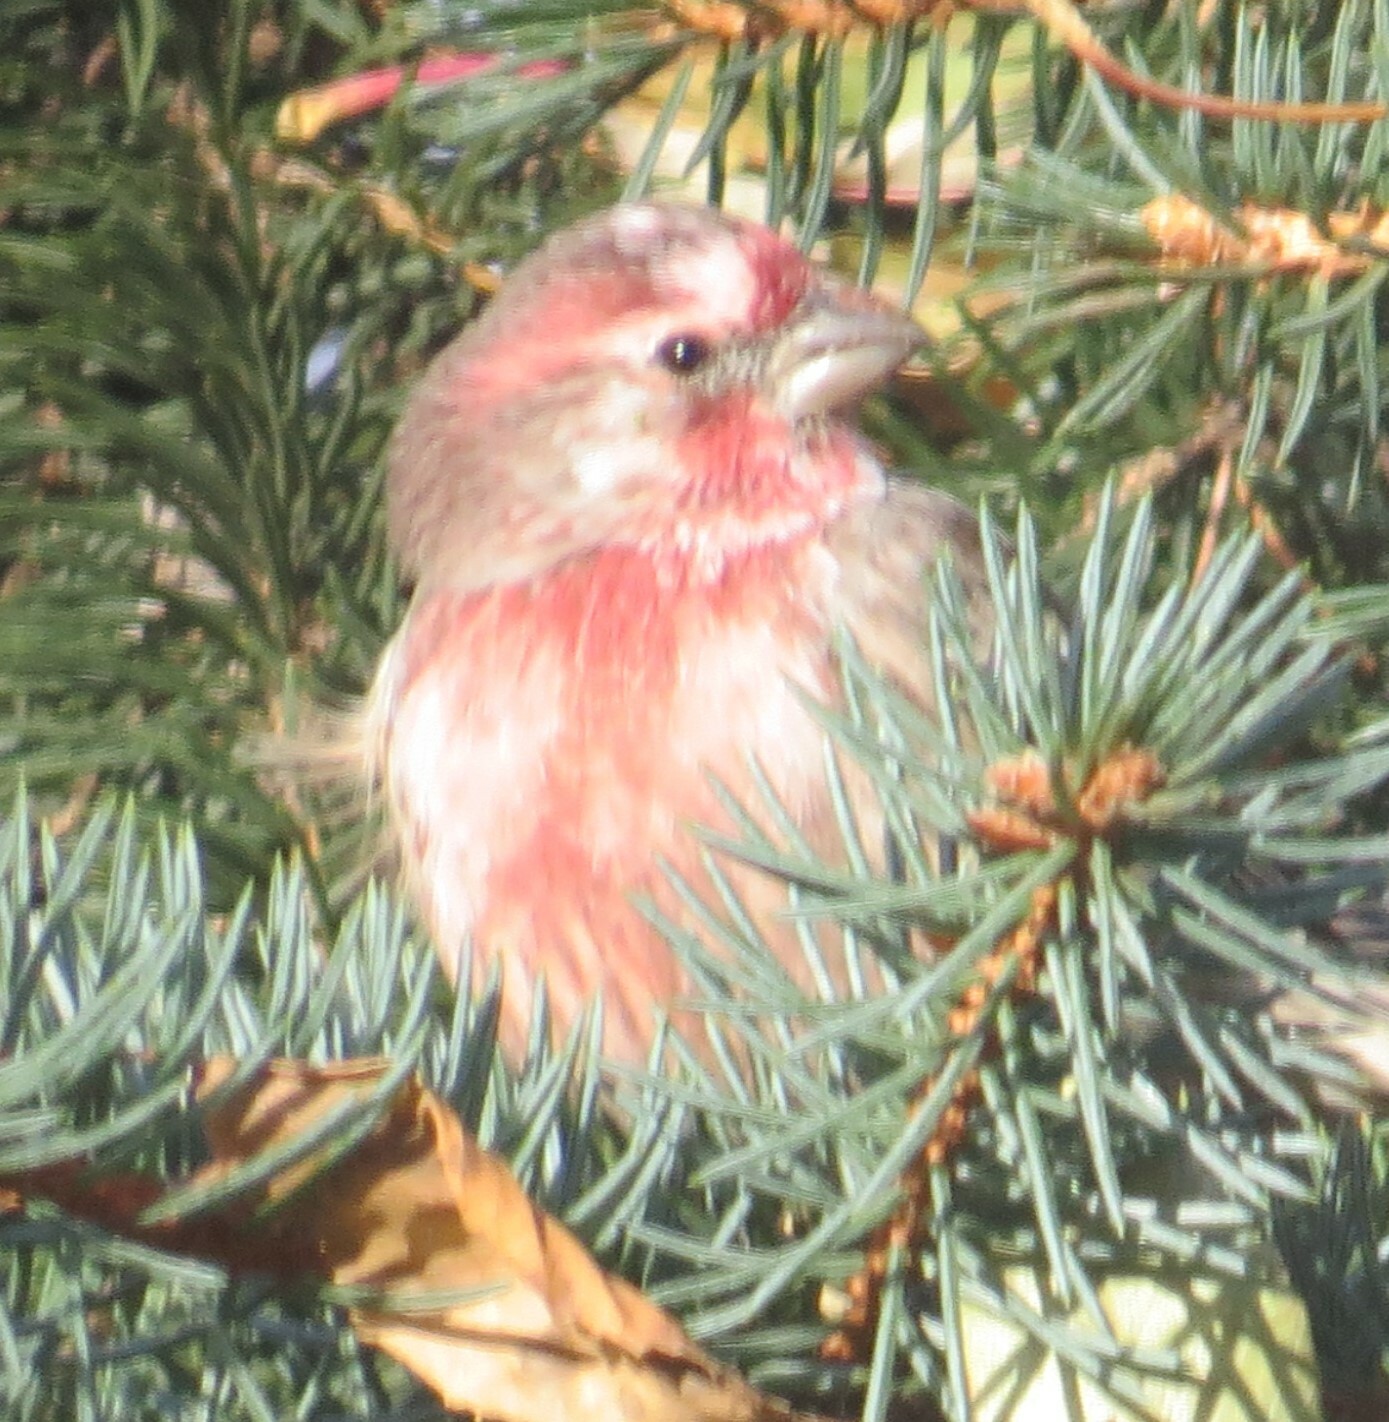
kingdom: Animalia
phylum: Chordata
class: Aves
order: Passeriformes
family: Fringillidae
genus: Haemorhous
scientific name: Haemorhous mexicanus
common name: House finch
